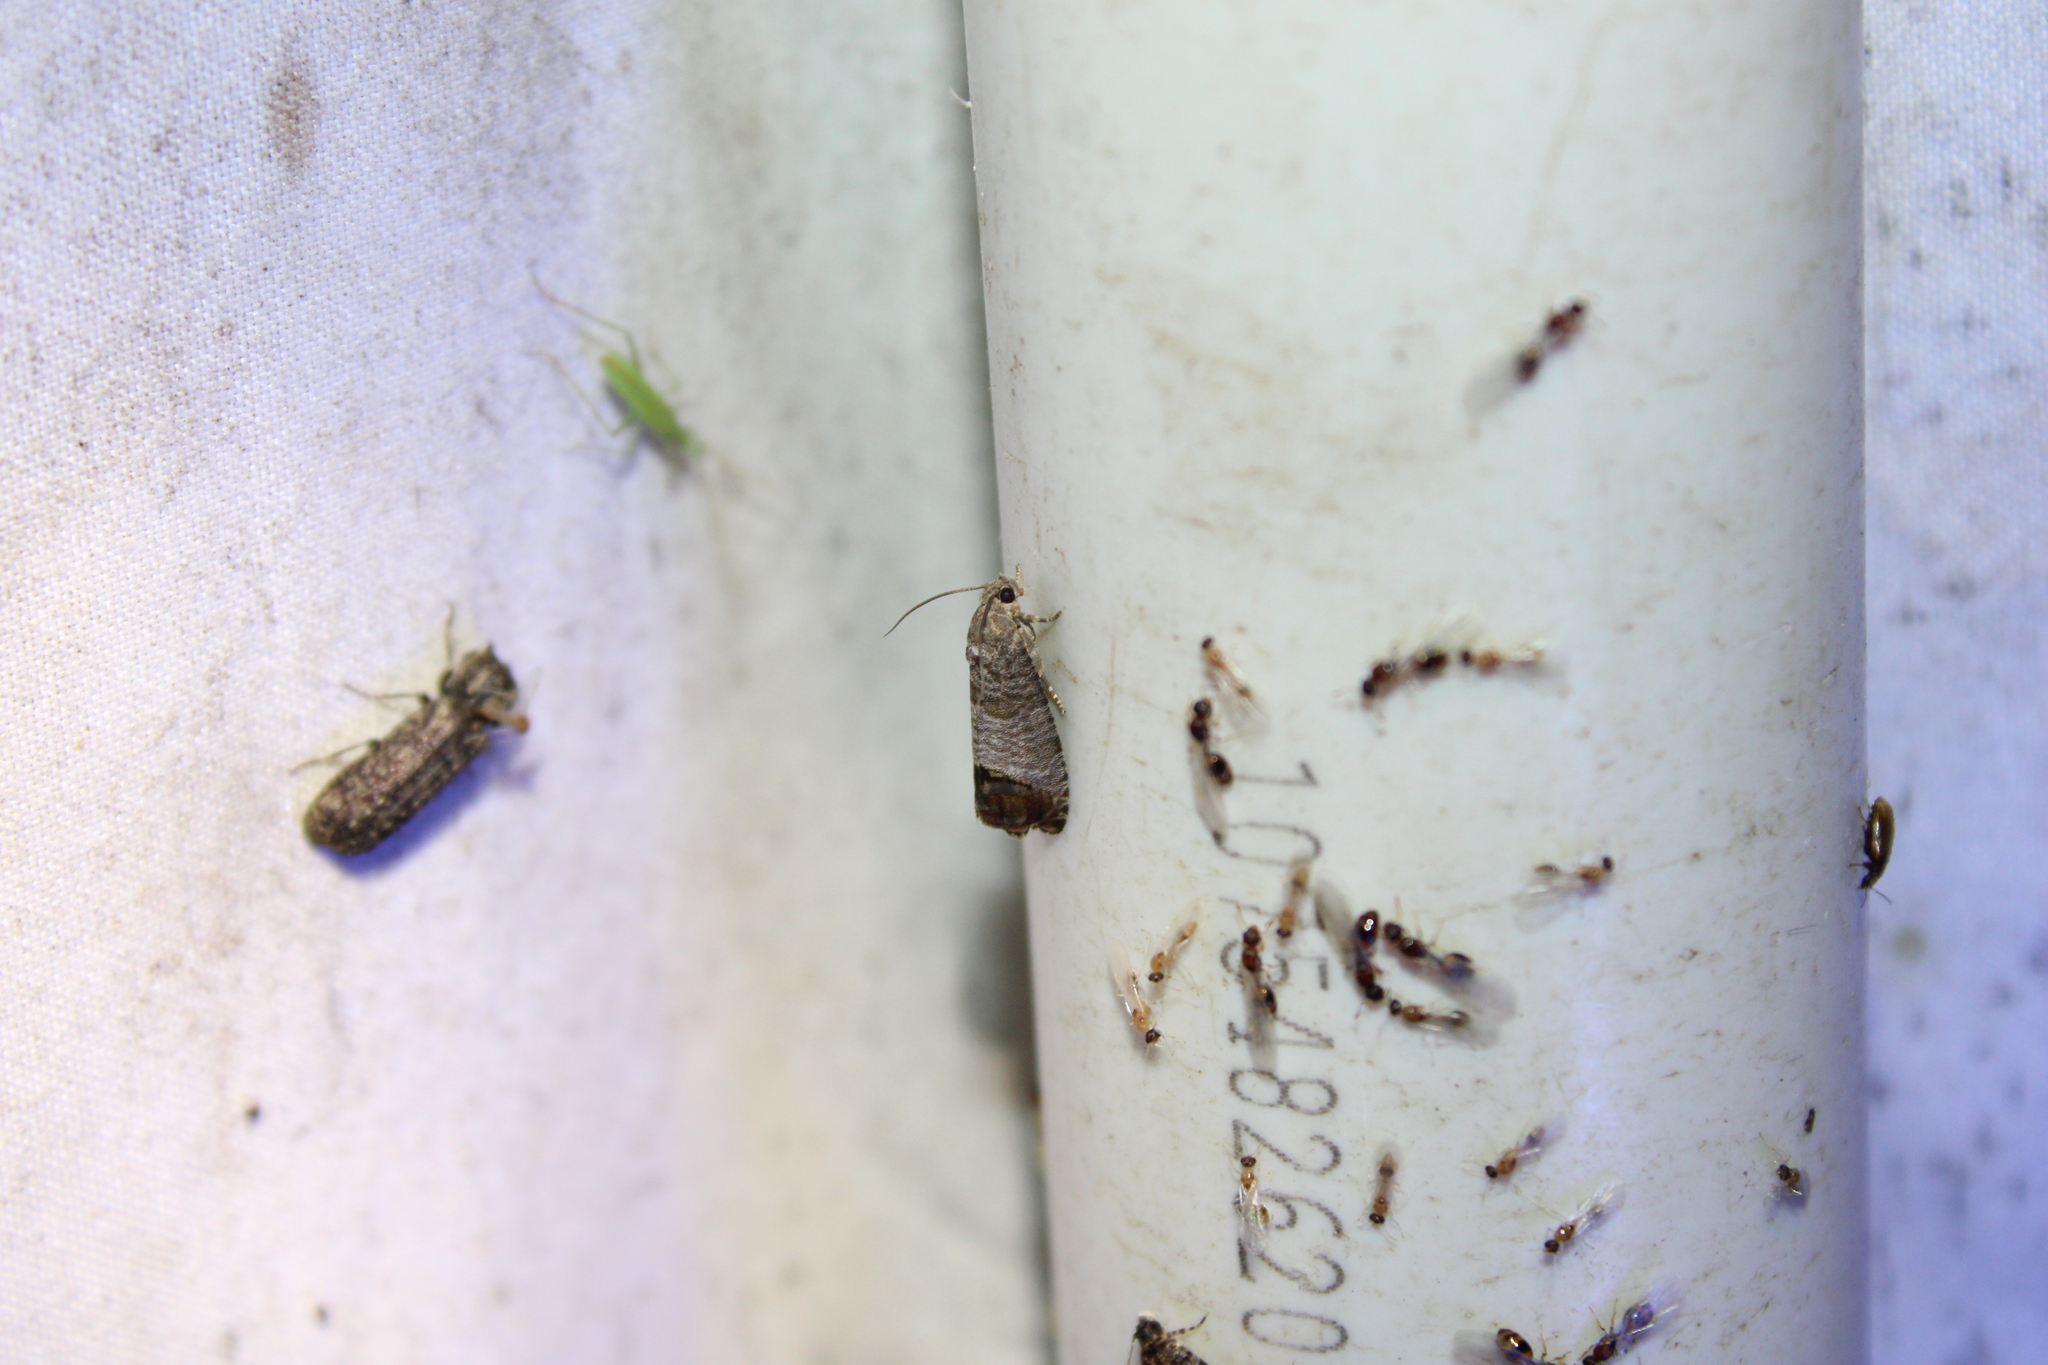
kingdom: Animalia
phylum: Arthropoda
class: Insecta
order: Lepidoptera
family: Tortricidae
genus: Cydia
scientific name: Cydia pomonella
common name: Codling moth
